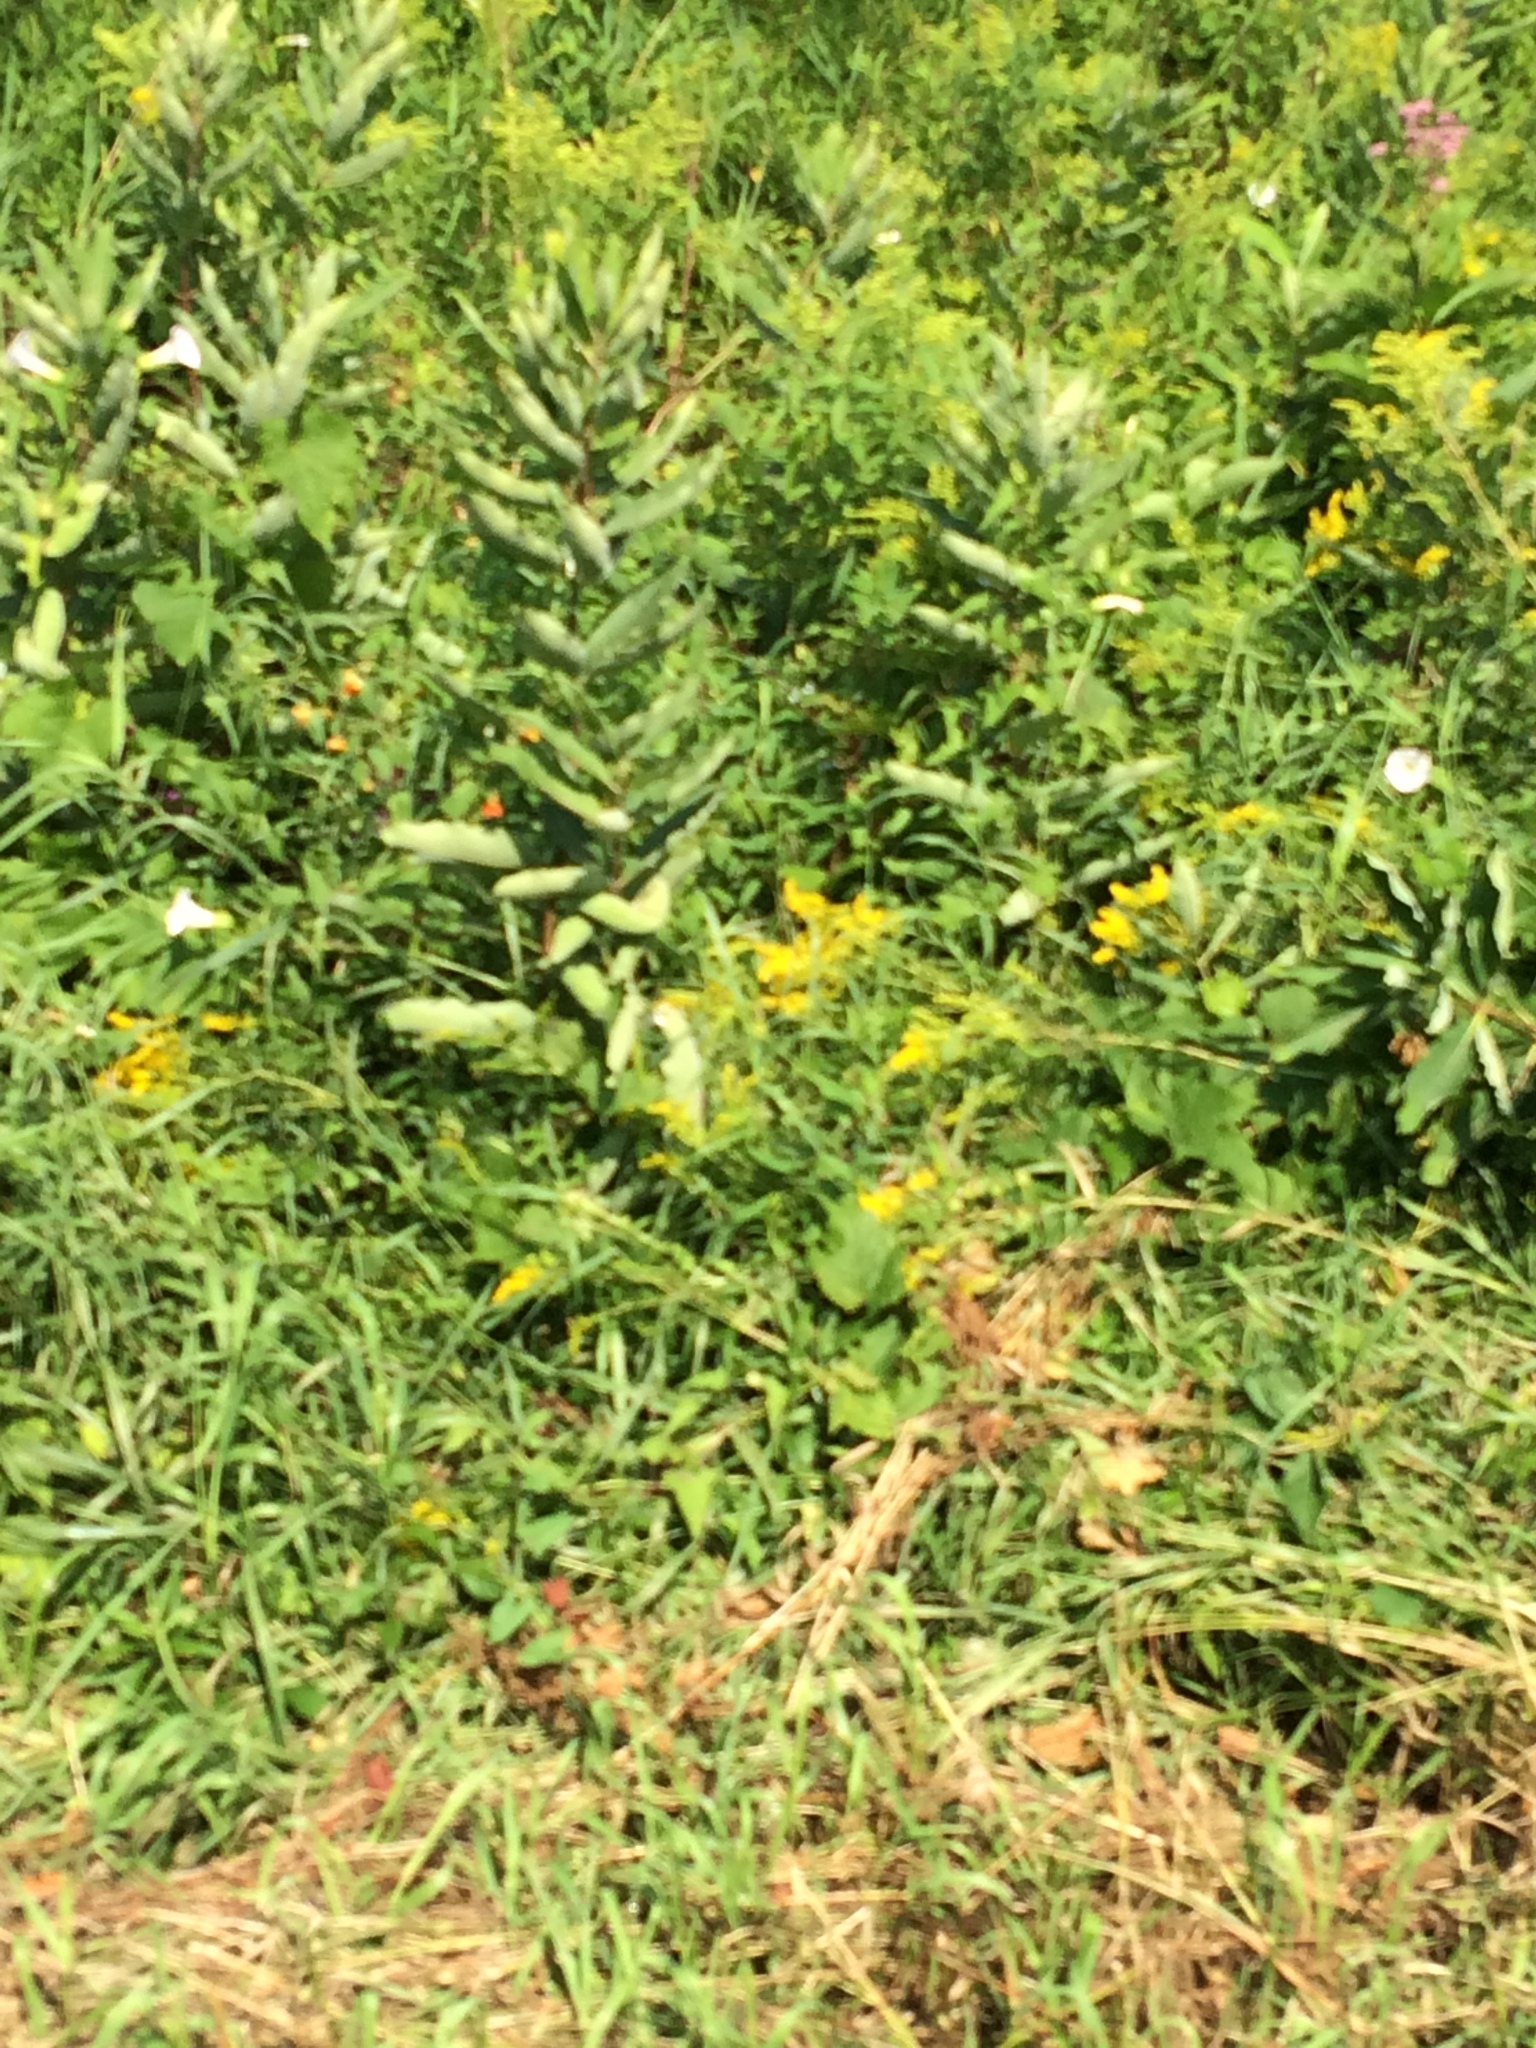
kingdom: Plantae
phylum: Tracheophyta
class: Magnoliopsida
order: Gentianales
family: Apocynaceae
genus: Asclepias
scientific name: Asclepias syriaca
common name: Common milkweed
